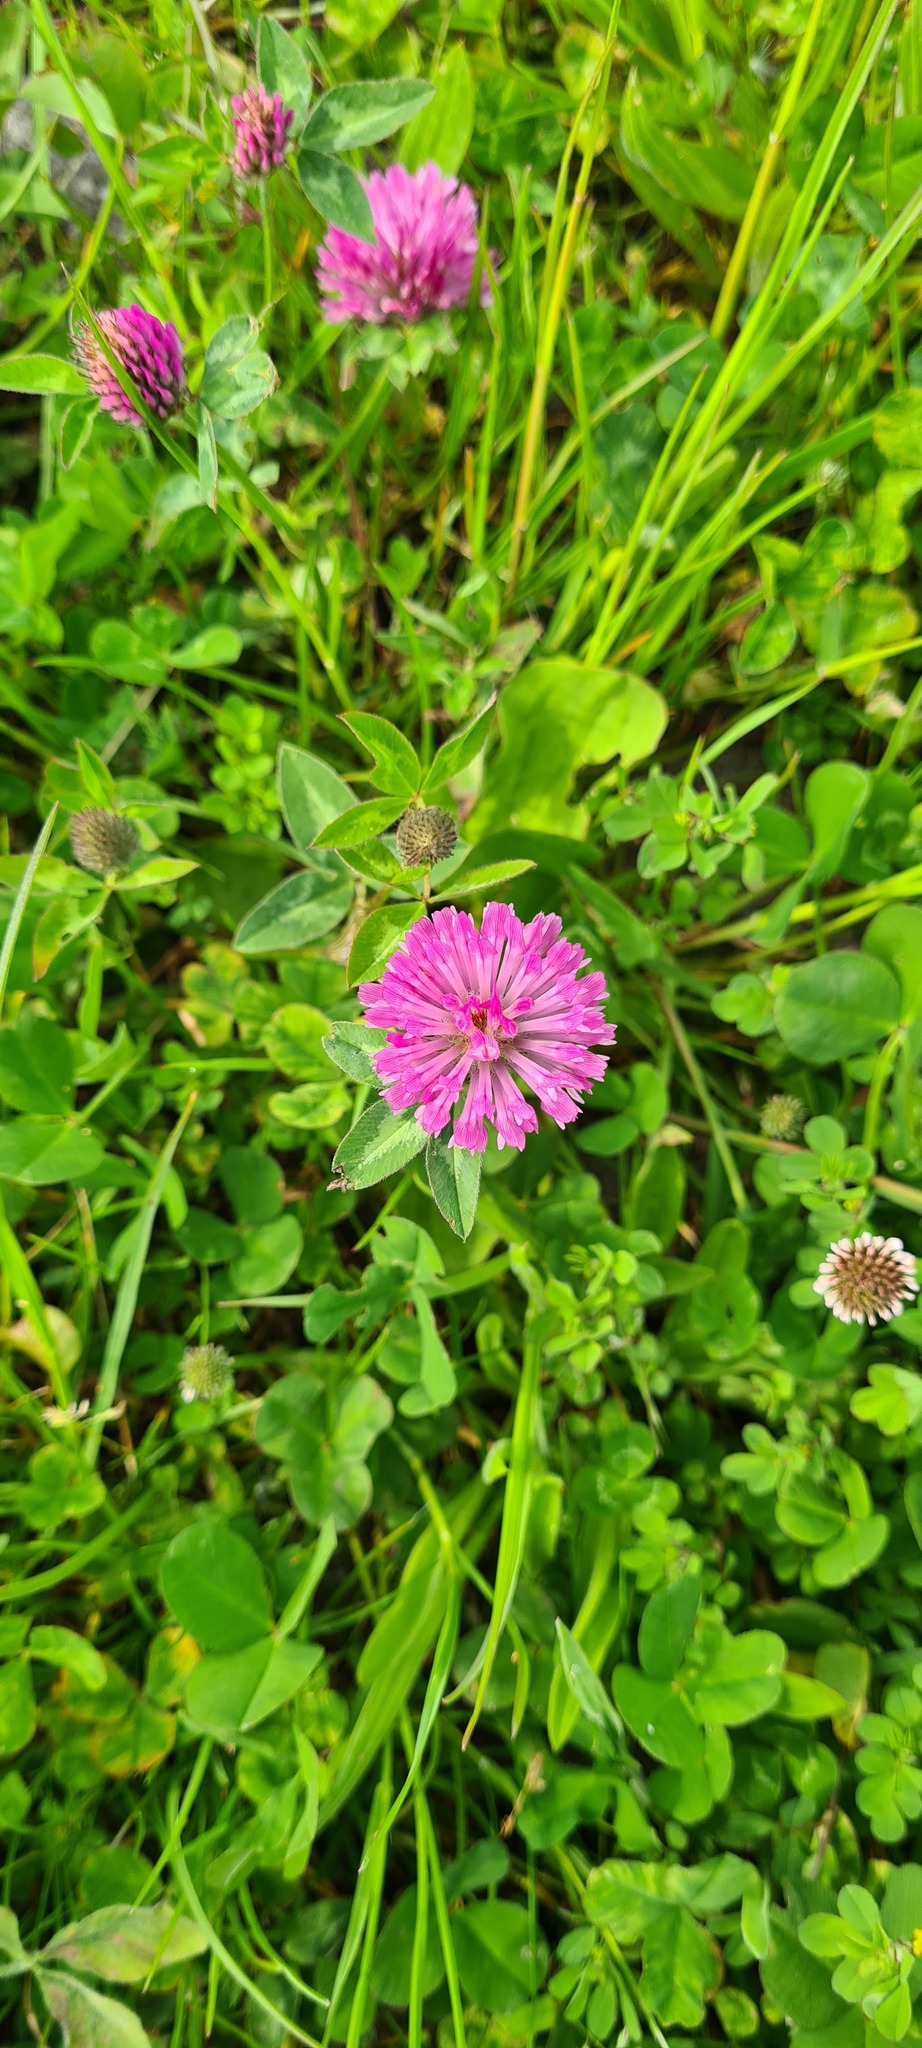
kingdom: Plantae
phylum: Tracheophyta
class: Magnoliopsida
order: Fabales
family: Fabaceae
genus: Trifolium
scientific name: Trifolium pratense
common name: Red clover
